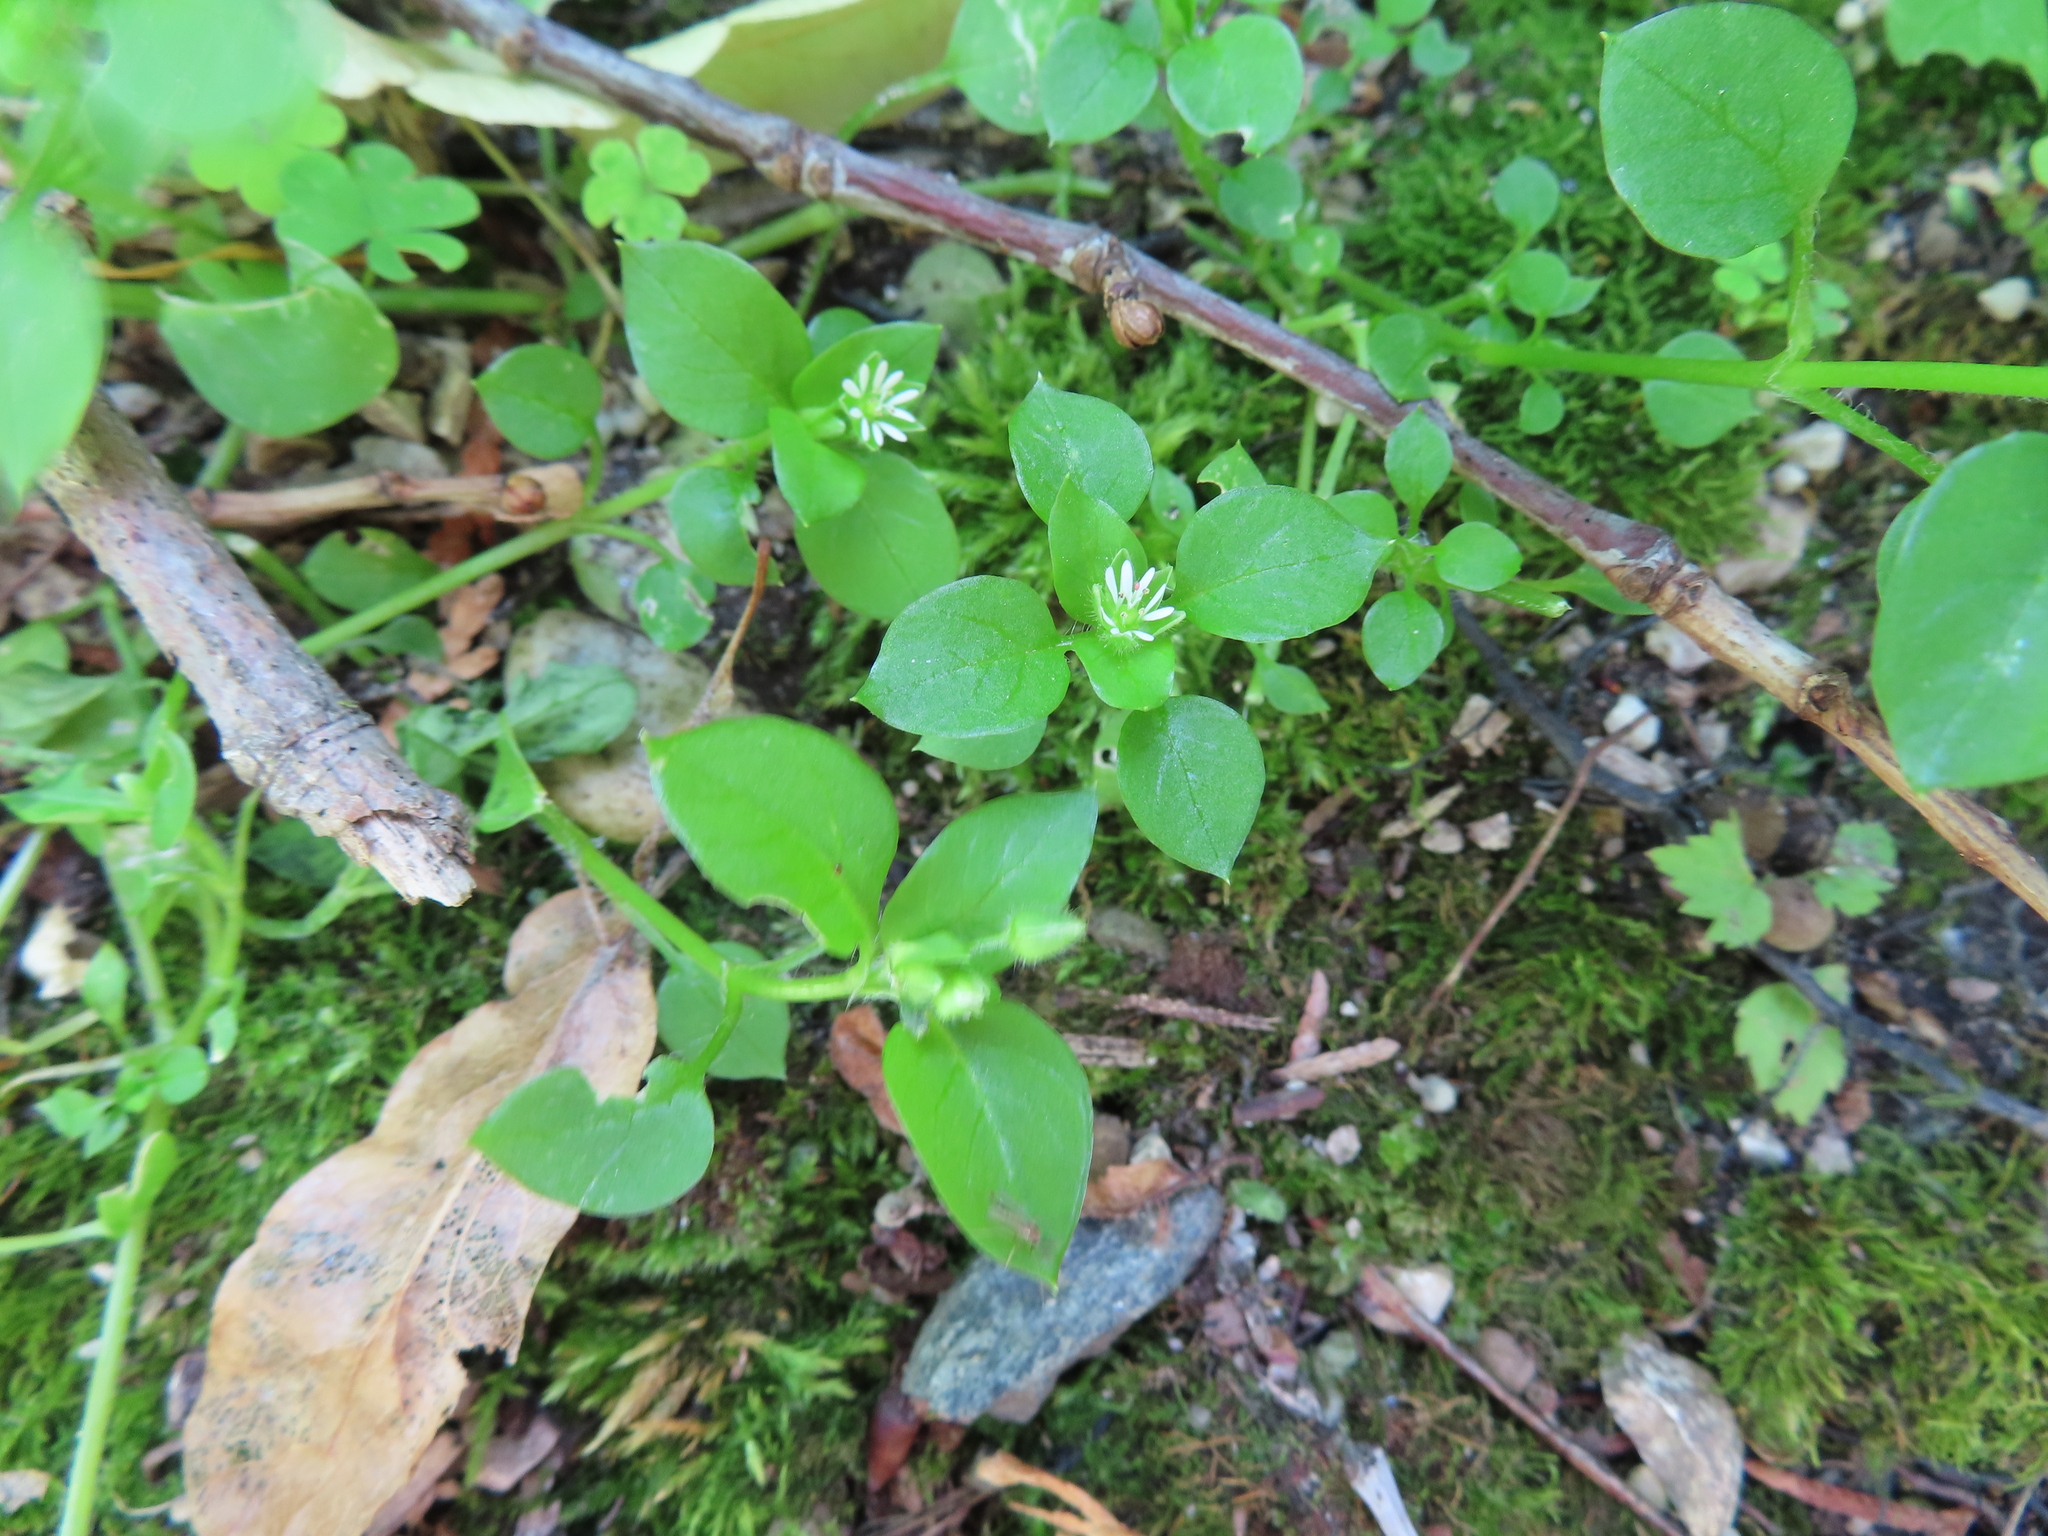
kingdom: Plantae
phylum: Tracheophyta
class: Magnoliopsida
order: Caryophyllales
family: Caryophyllaceae
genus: Stellaria
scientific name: Stellaria media
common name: Common chickweed
